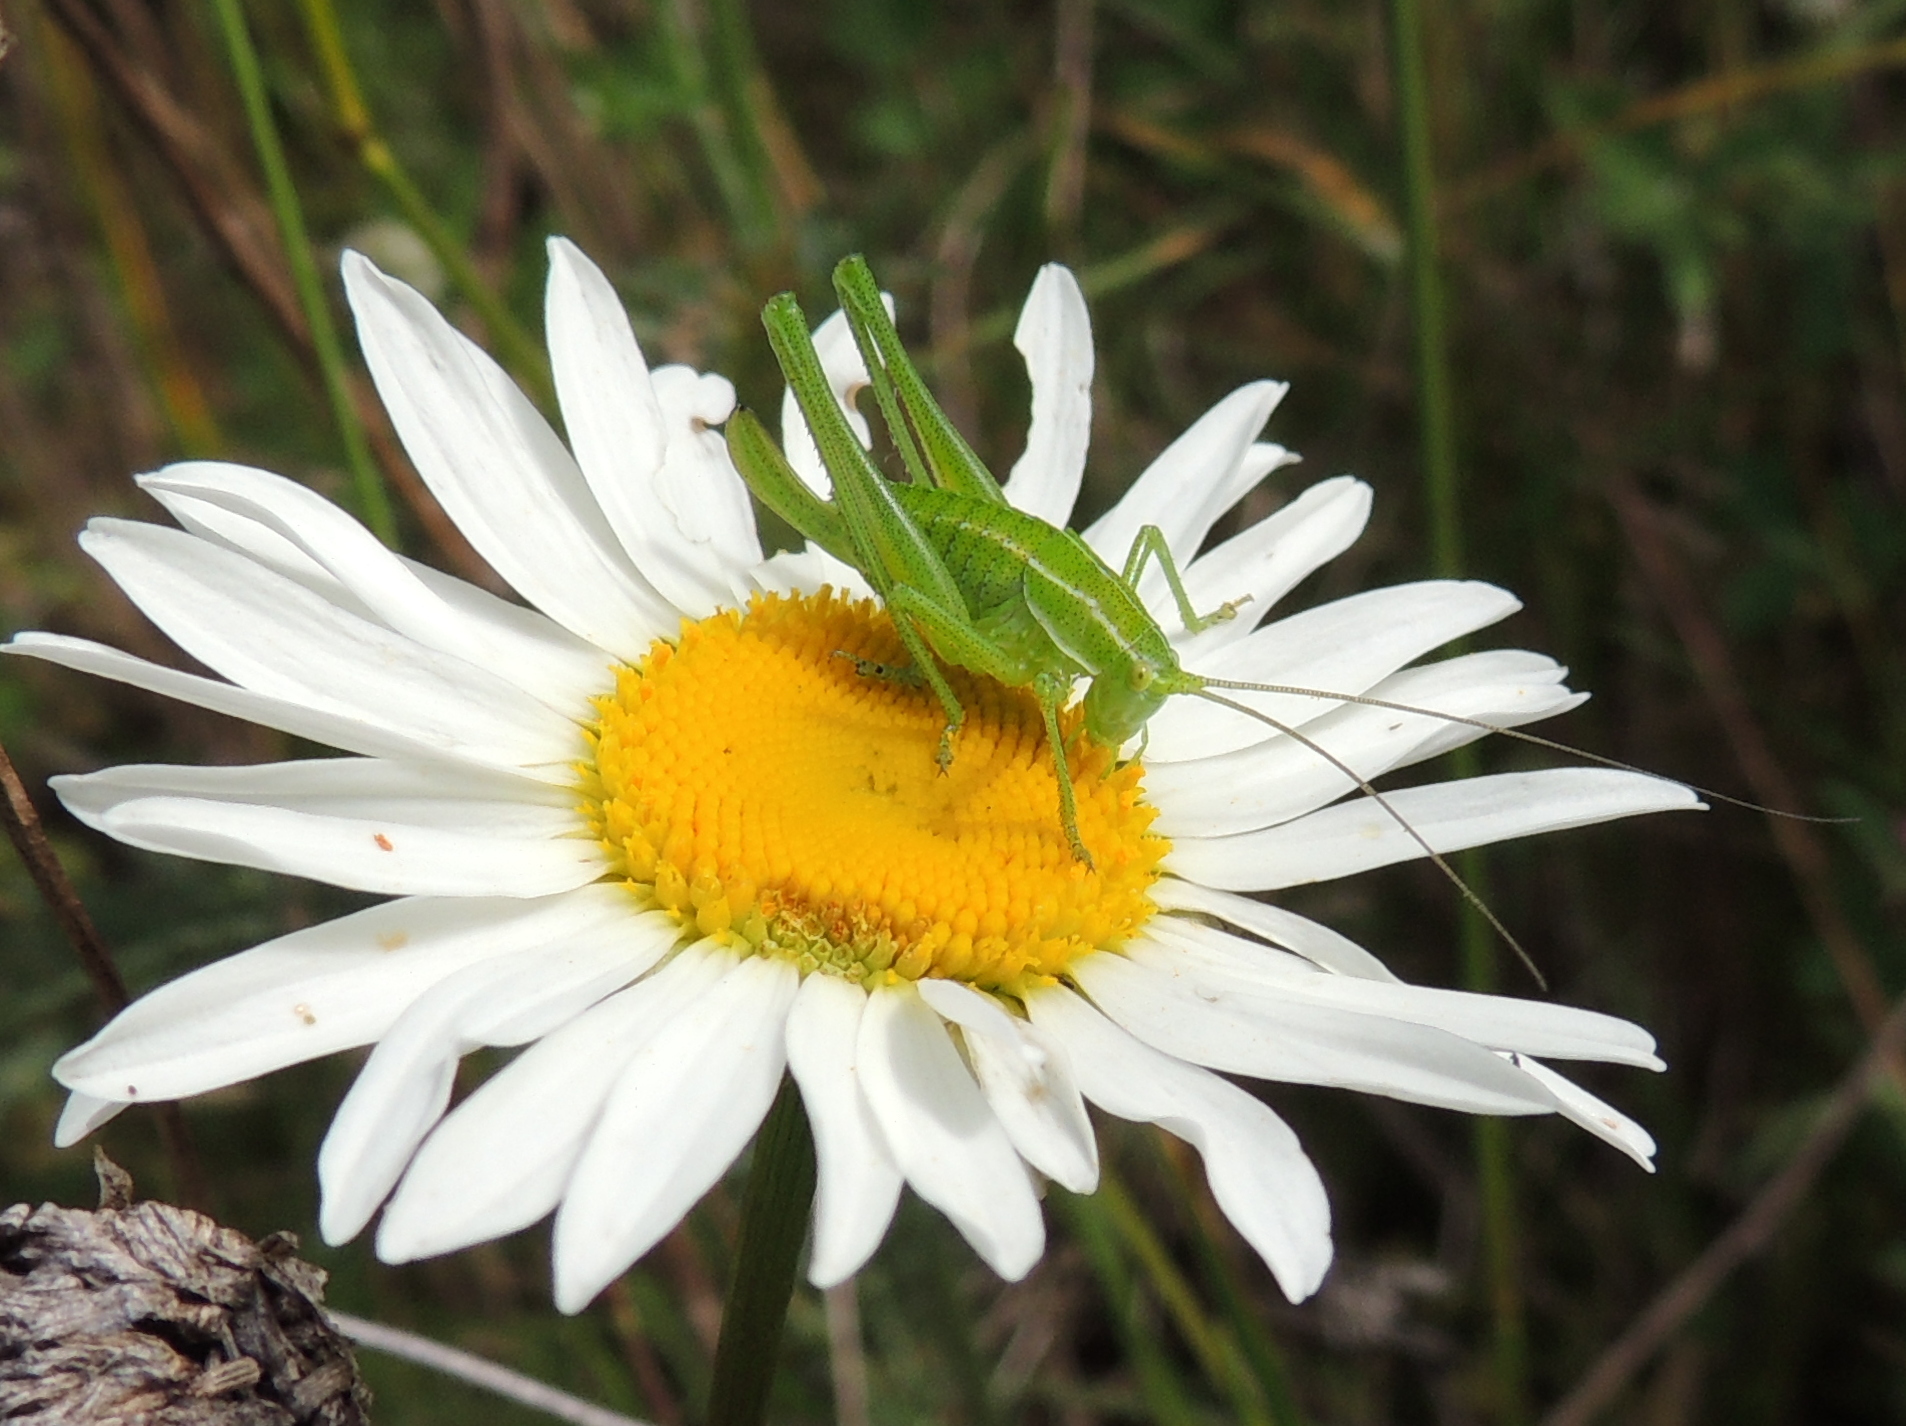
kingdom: Animalia
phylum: Arthropoda
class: Insecta
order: Orthoptera
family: Tettigoniidae
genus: Poecilimon
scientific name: Poecilimon intermedius
